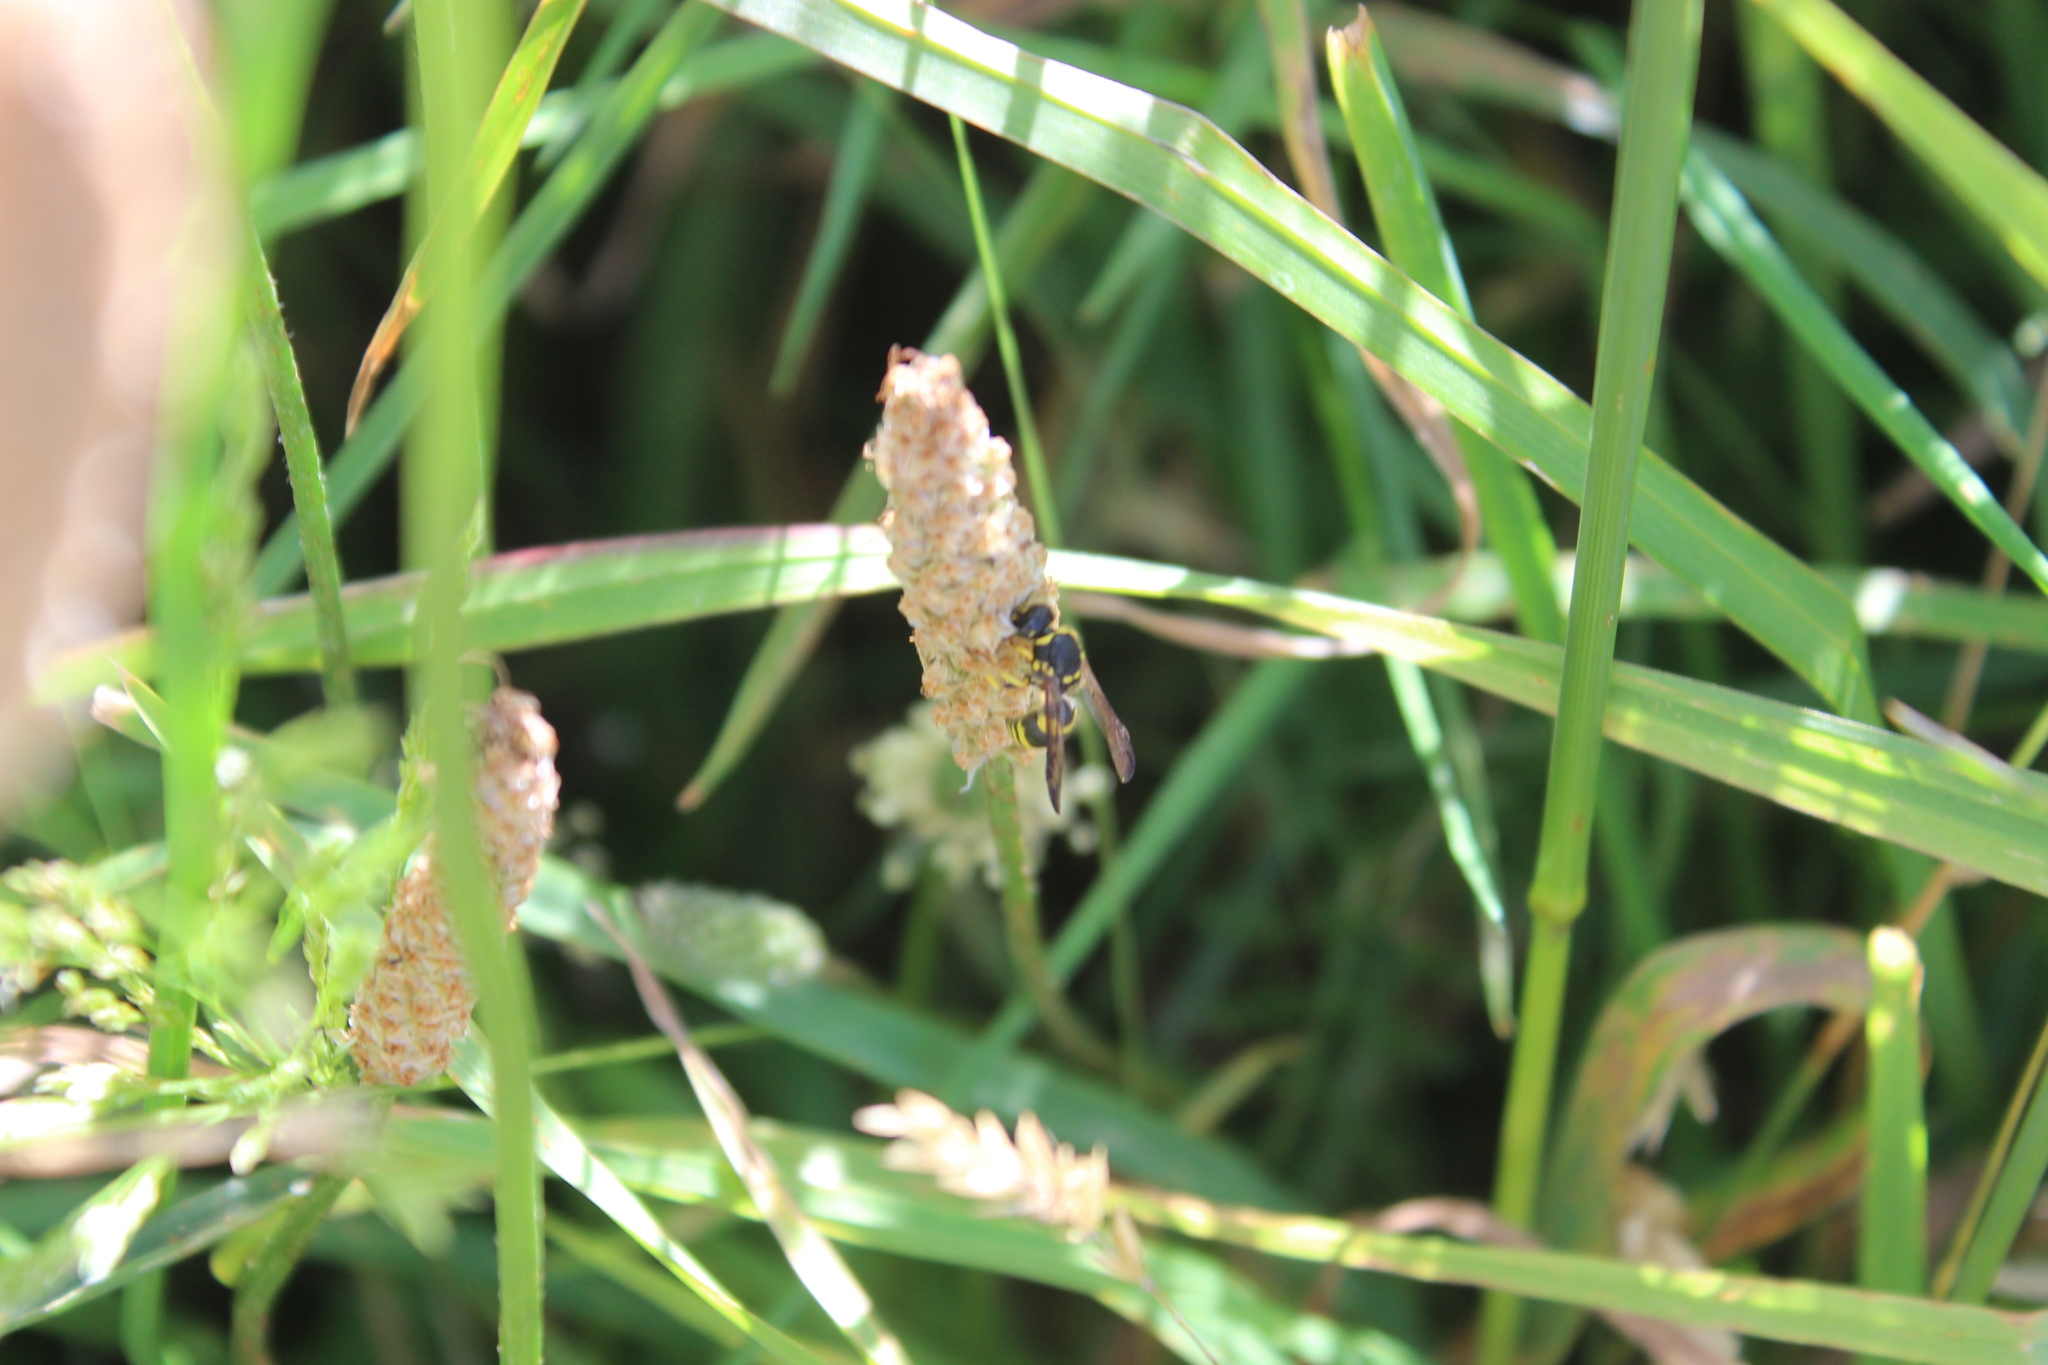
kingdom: Animalia
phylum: Arthropoda
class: Insecta
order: Hymenoptera
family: Vespidae
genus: Ancistrocerus
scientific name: Ancistrocerus gazella
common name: European tube wasp
